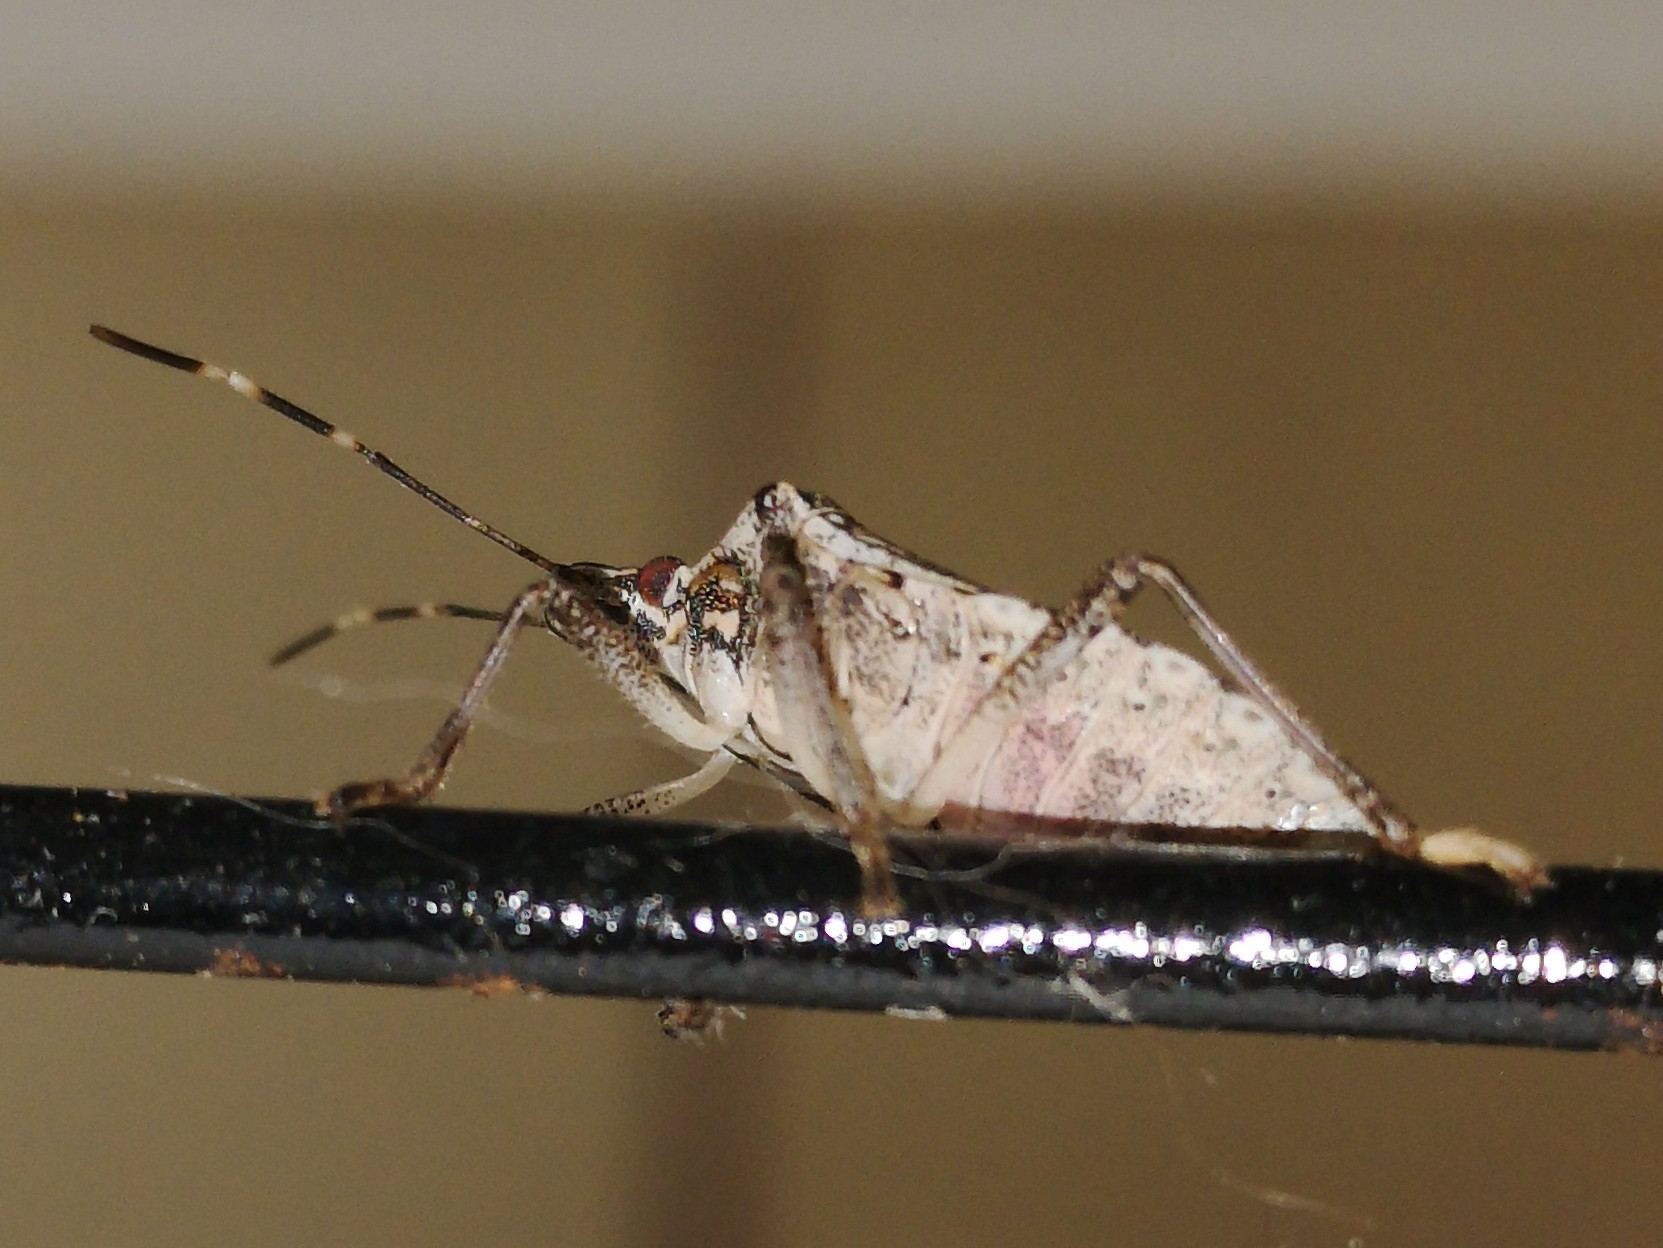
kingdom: Animalia
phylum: Arthropoda
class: Insecta
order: Hemiptera
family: Pentatomidae
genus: Halyomorpha
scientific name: Halyomorpha halys
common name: Brown marmorated stink bug
